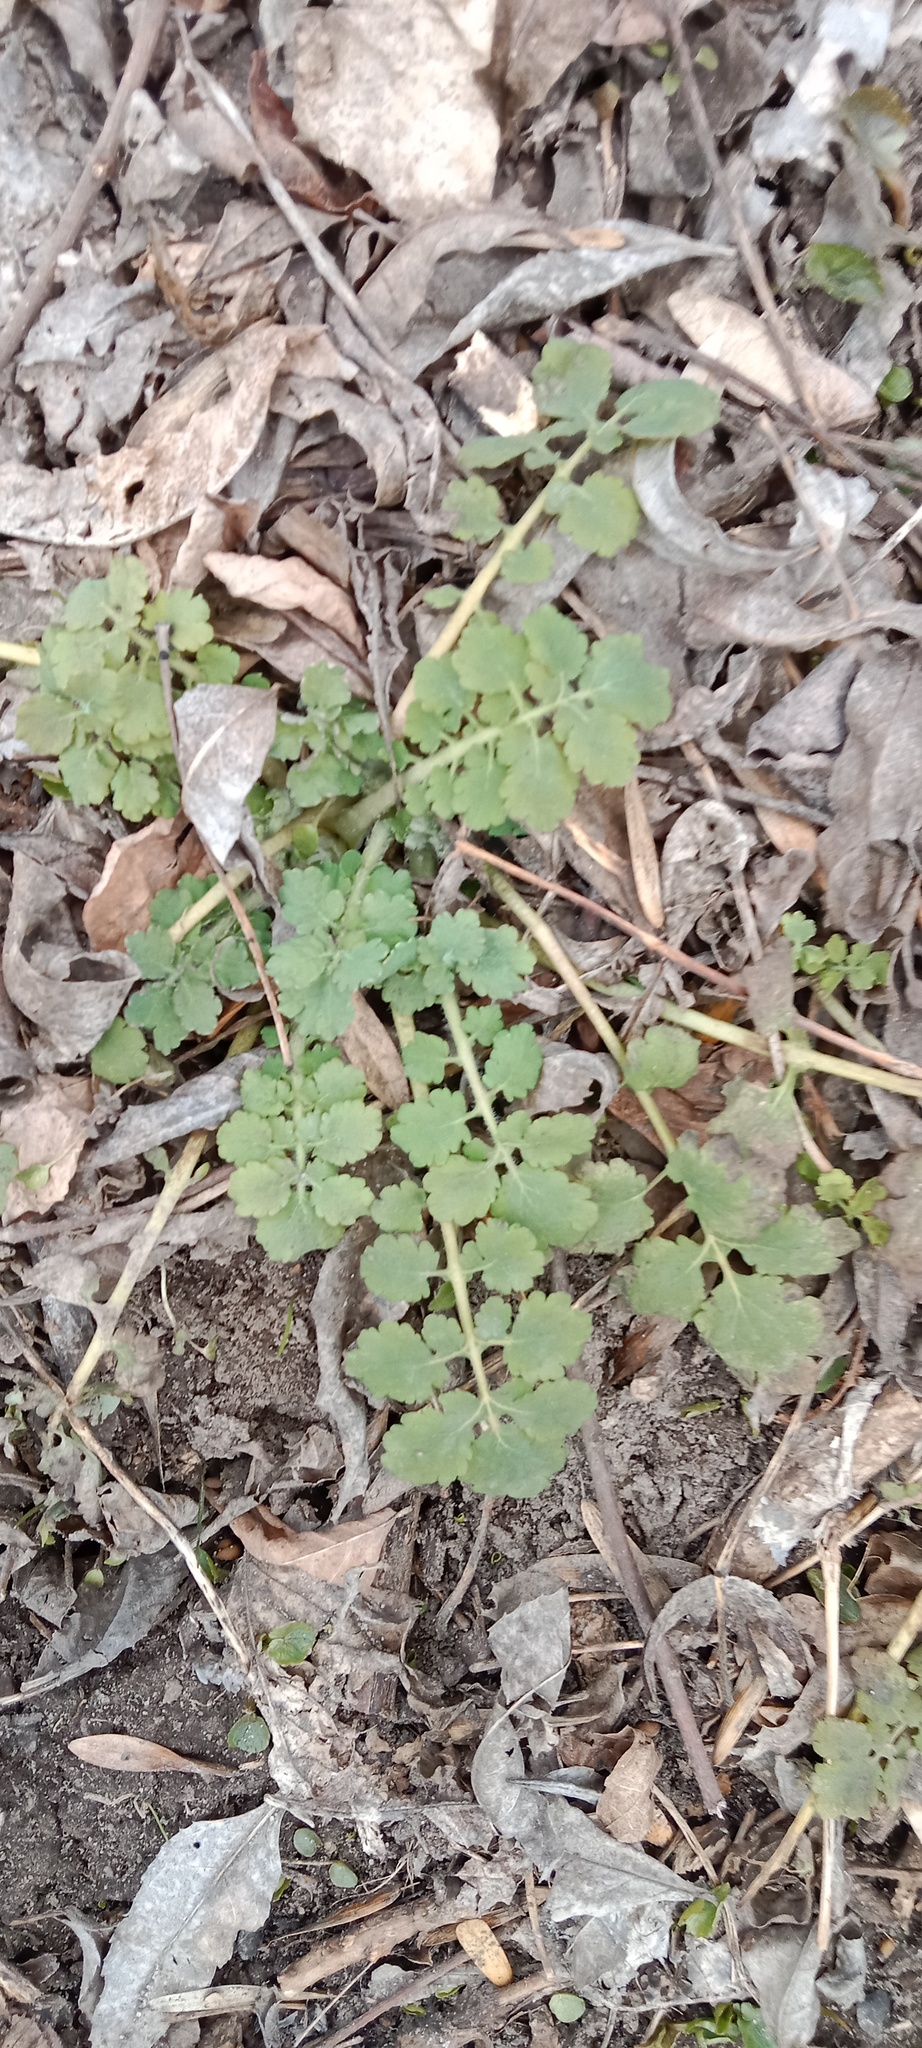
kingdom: Plantae
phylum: Tracheophyta
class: Magnoliopsida
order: Ranunculales
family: Papaveraceae
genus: Chelidonium
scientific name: Chelidonium majus
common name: Greater celandine
